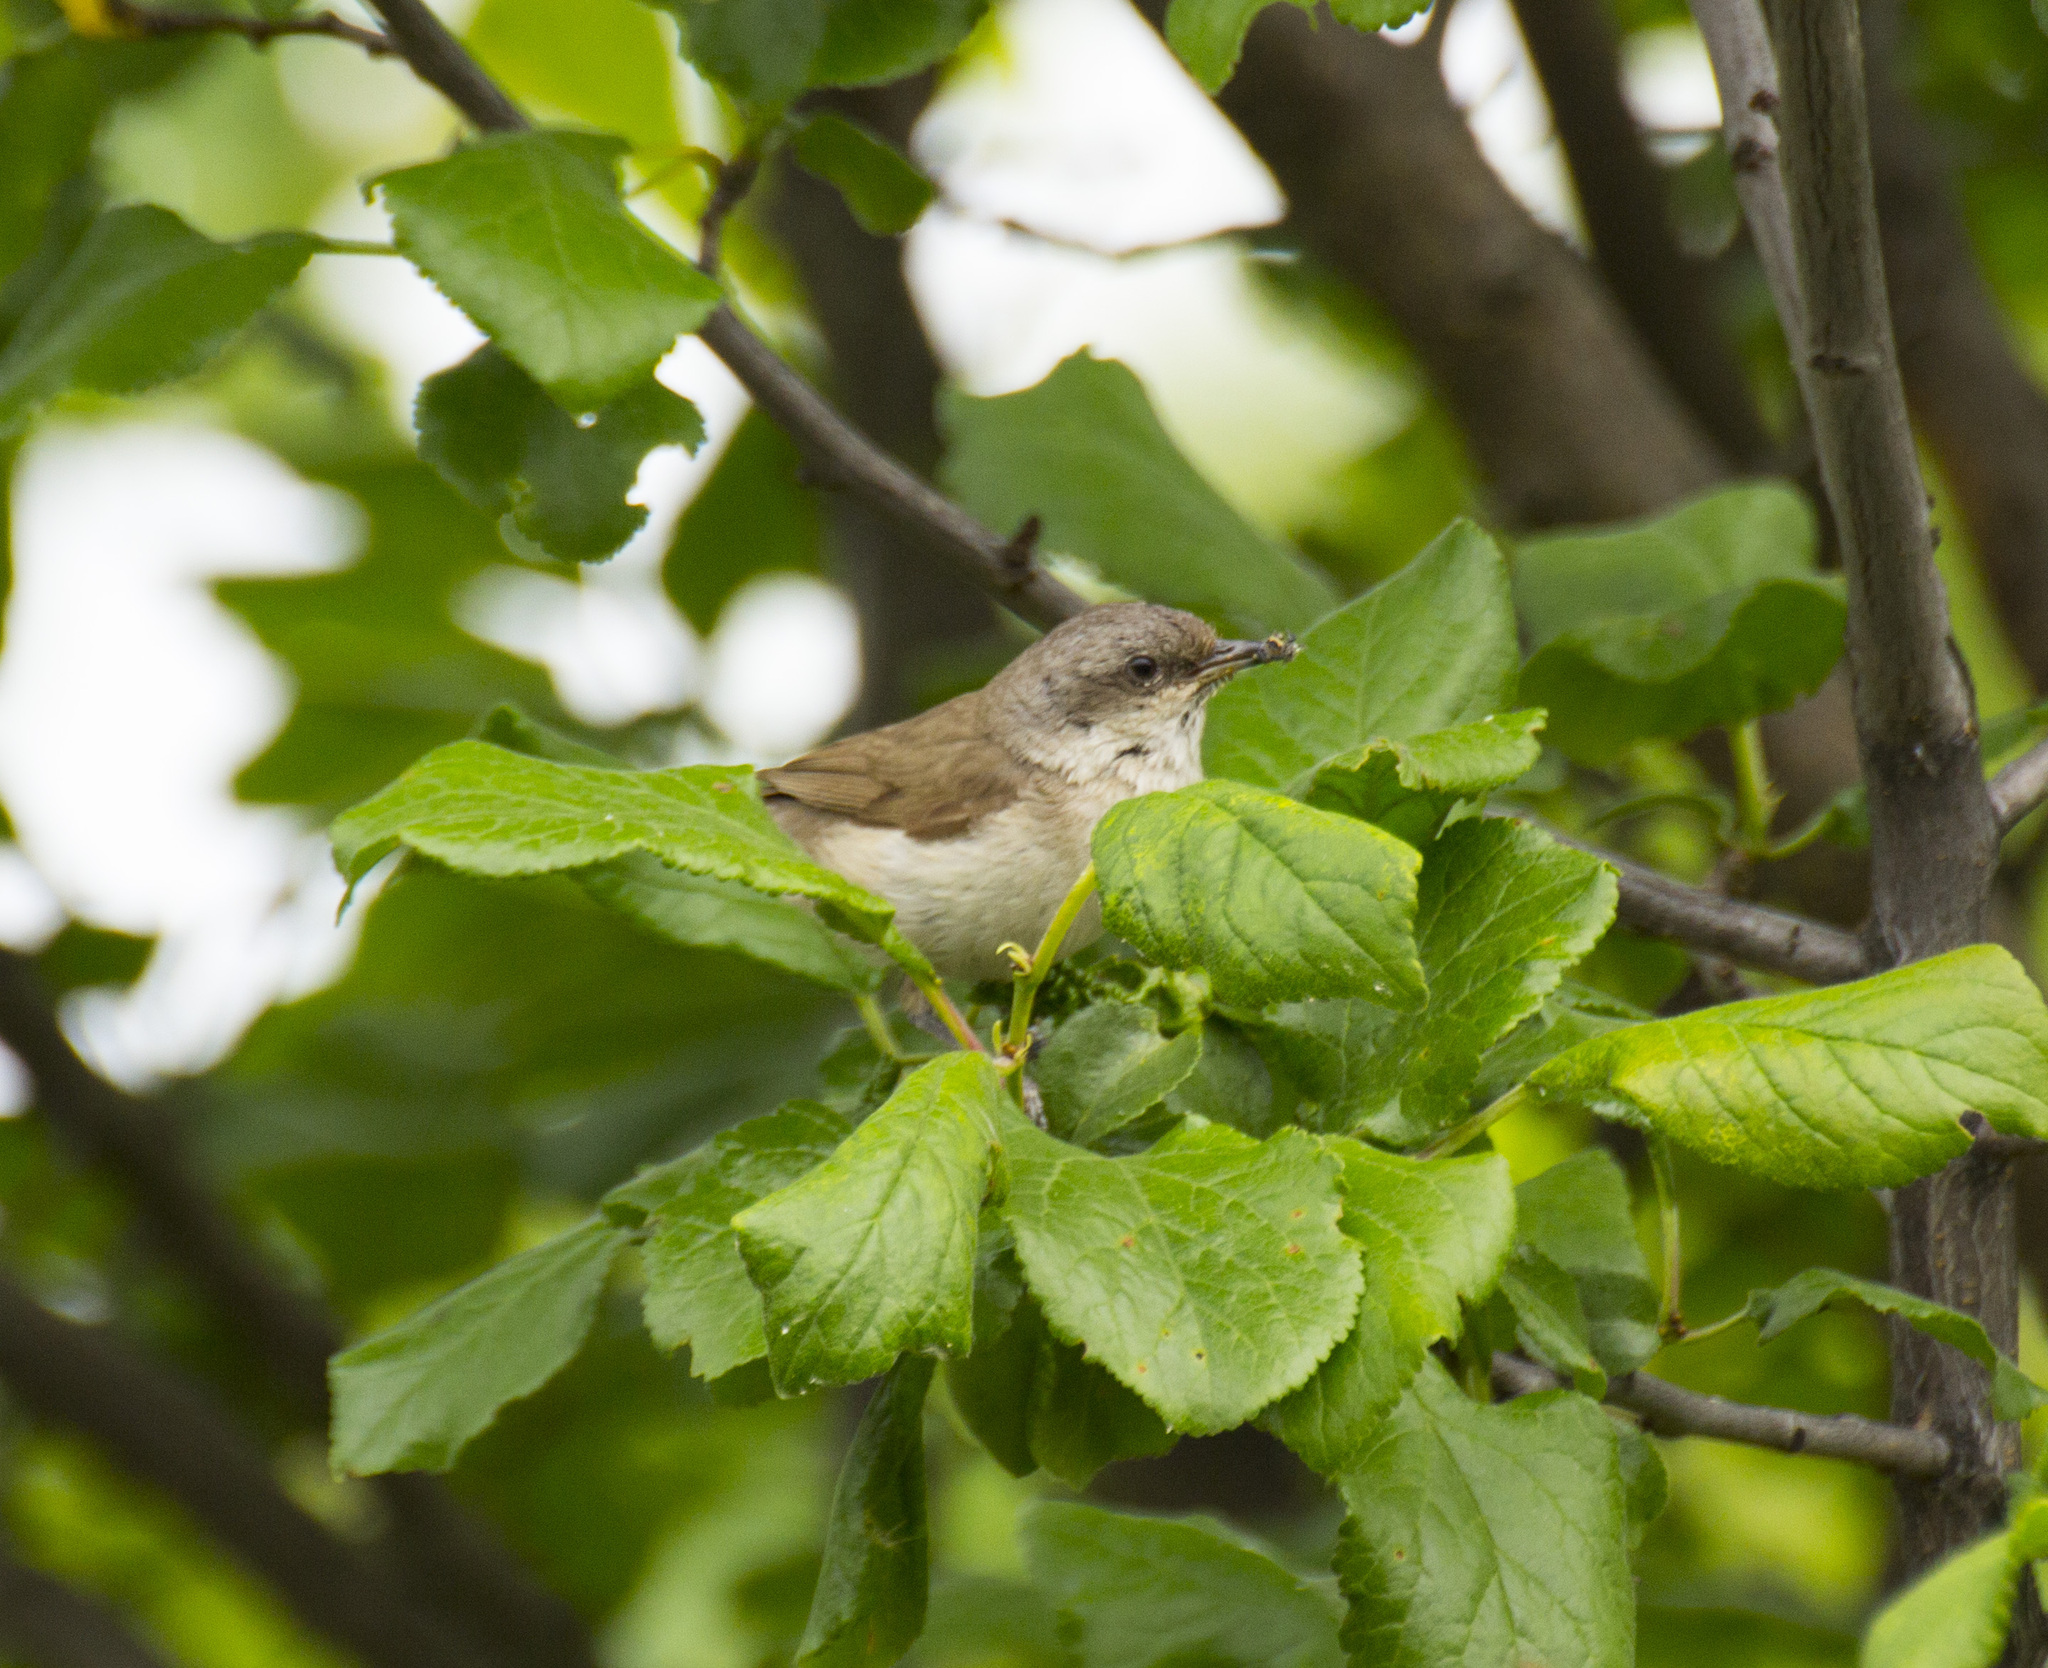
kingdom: Animalia
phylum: Chordata
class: Aves
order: Passeriformes
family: Sylviidae
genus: Sylvia
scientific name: Sylvia curruca
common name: Lesser whitethroat
